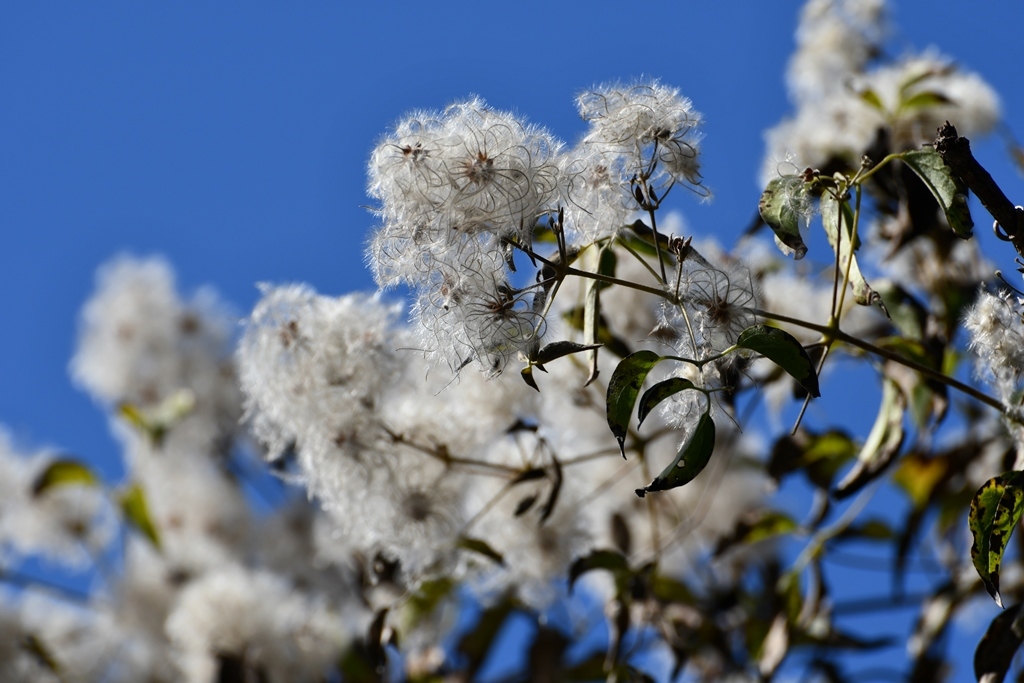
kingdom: Plantae
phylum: Tracheophyta
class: Magnoliopsida
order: Ranunculales
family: Ranunculaceae
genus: Clematis
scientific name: Clematis dioica
